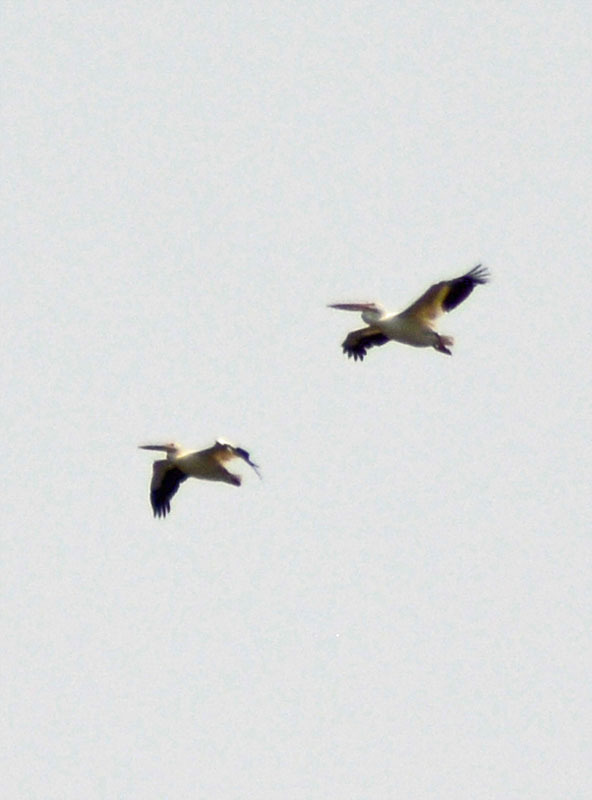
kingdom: Animalia
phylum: Chordata
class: Aves
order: Pelecaniformes
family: Pelecanidae
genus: Pelecanus
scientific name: Pelecanus erythrorhynchos
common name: American white pelican
